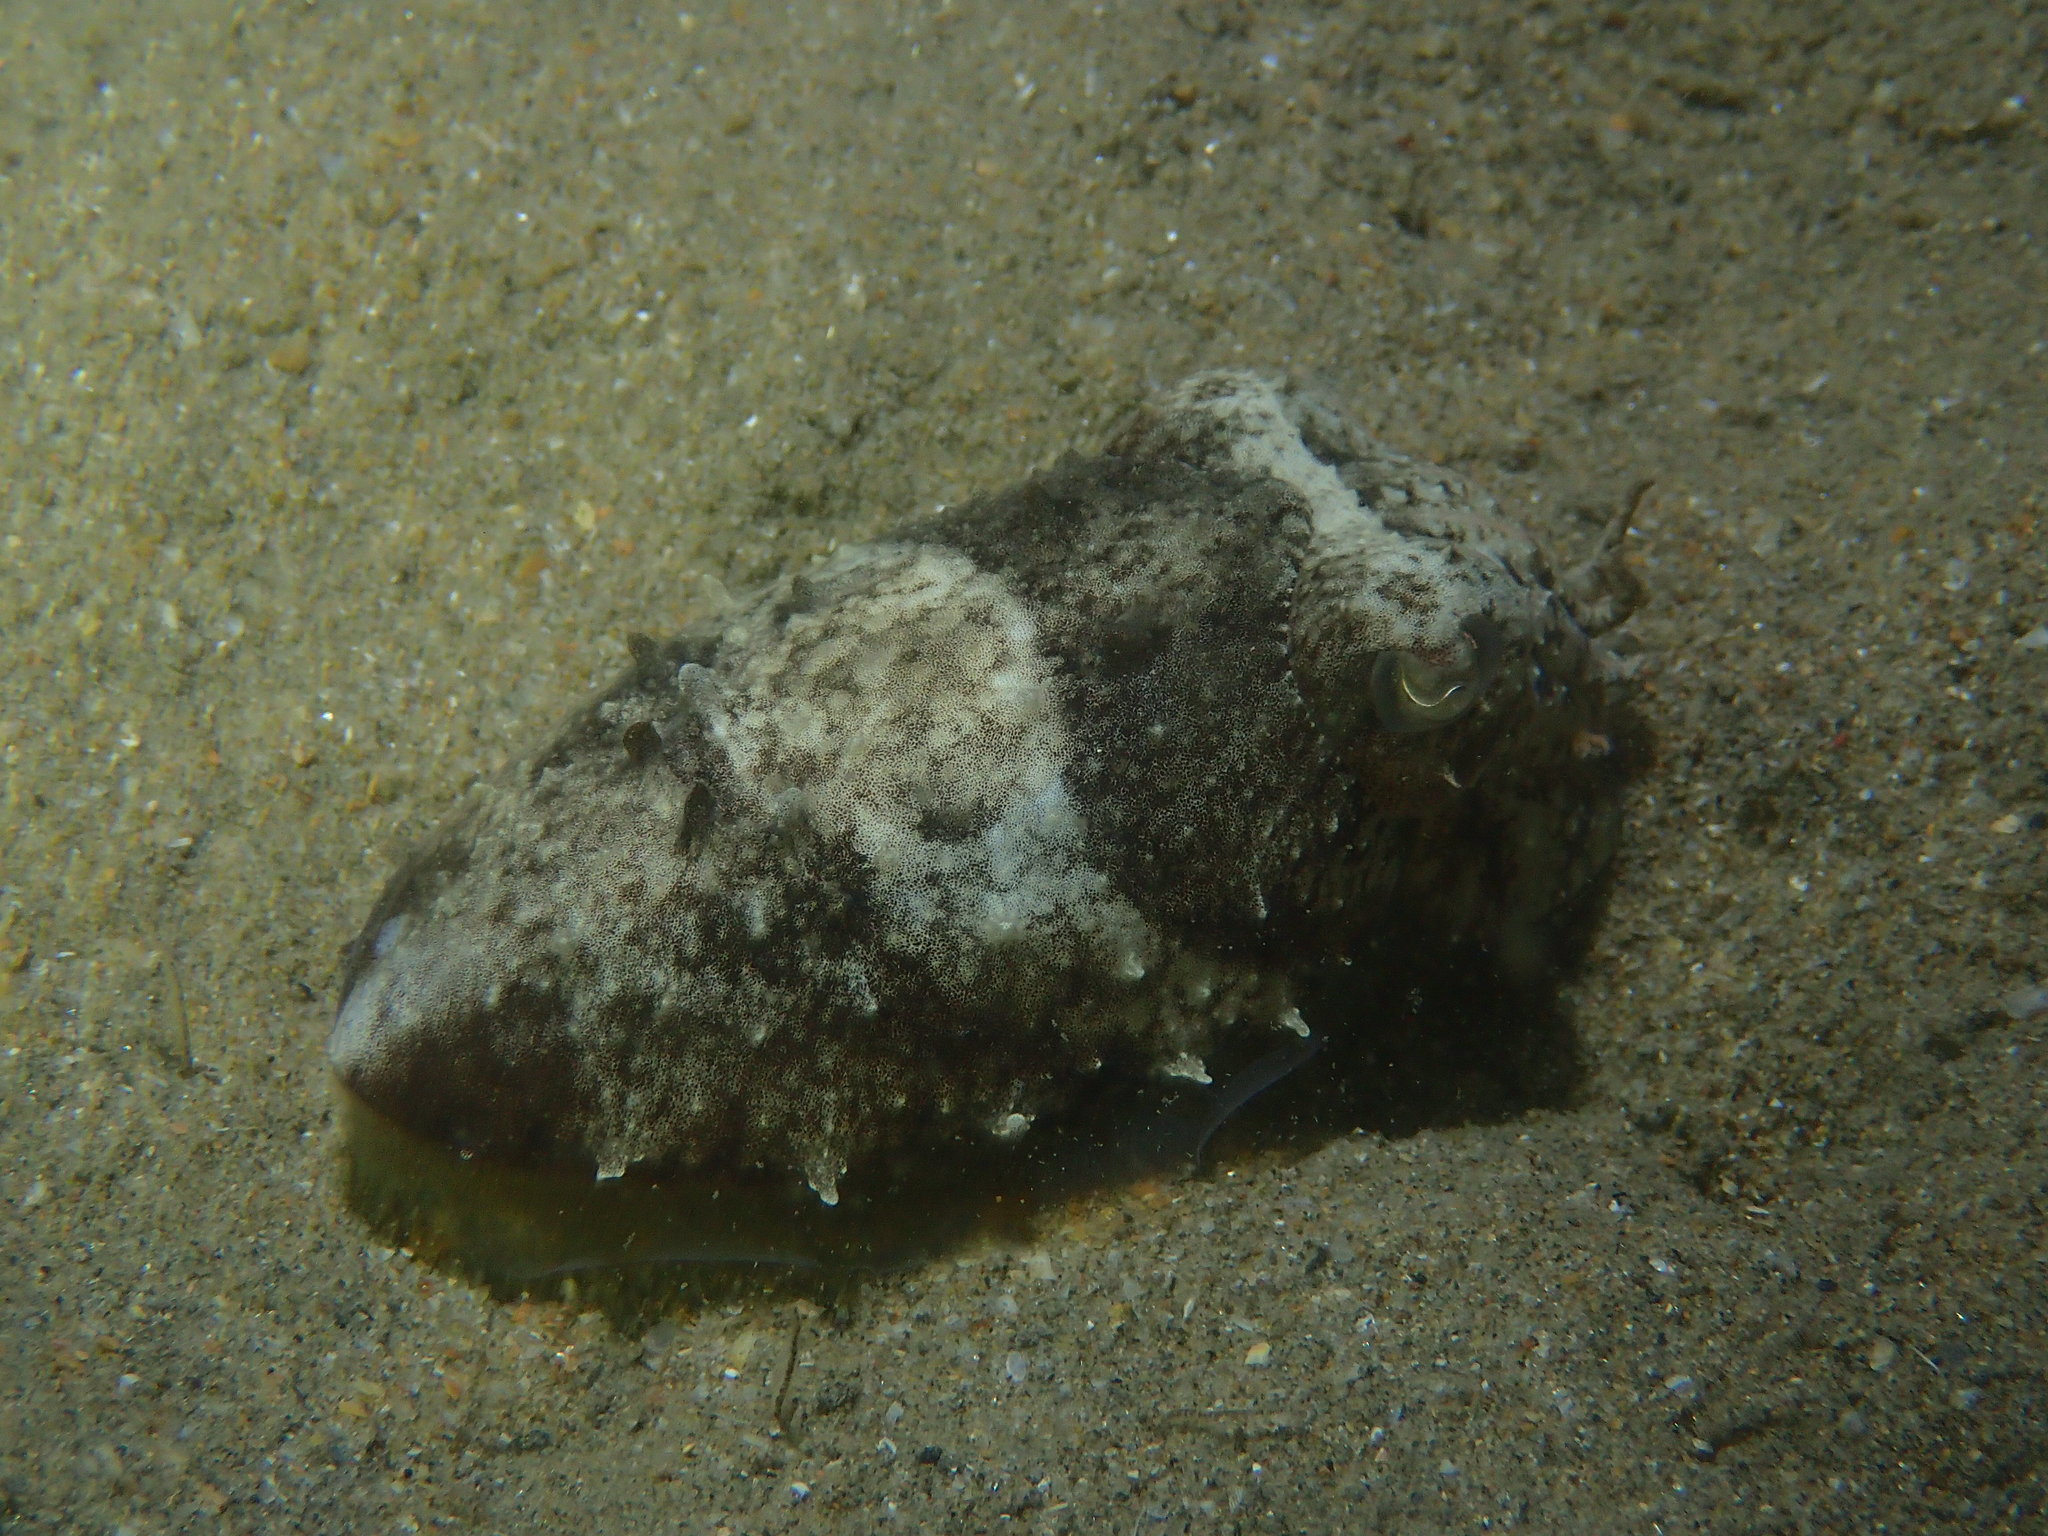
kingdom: Animalia
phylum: Mollusca
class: Cephalopoda
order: Sepiida
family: Sepiidae
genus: Sepia
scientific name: Sepia officinalis
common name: Common cuttlefish
